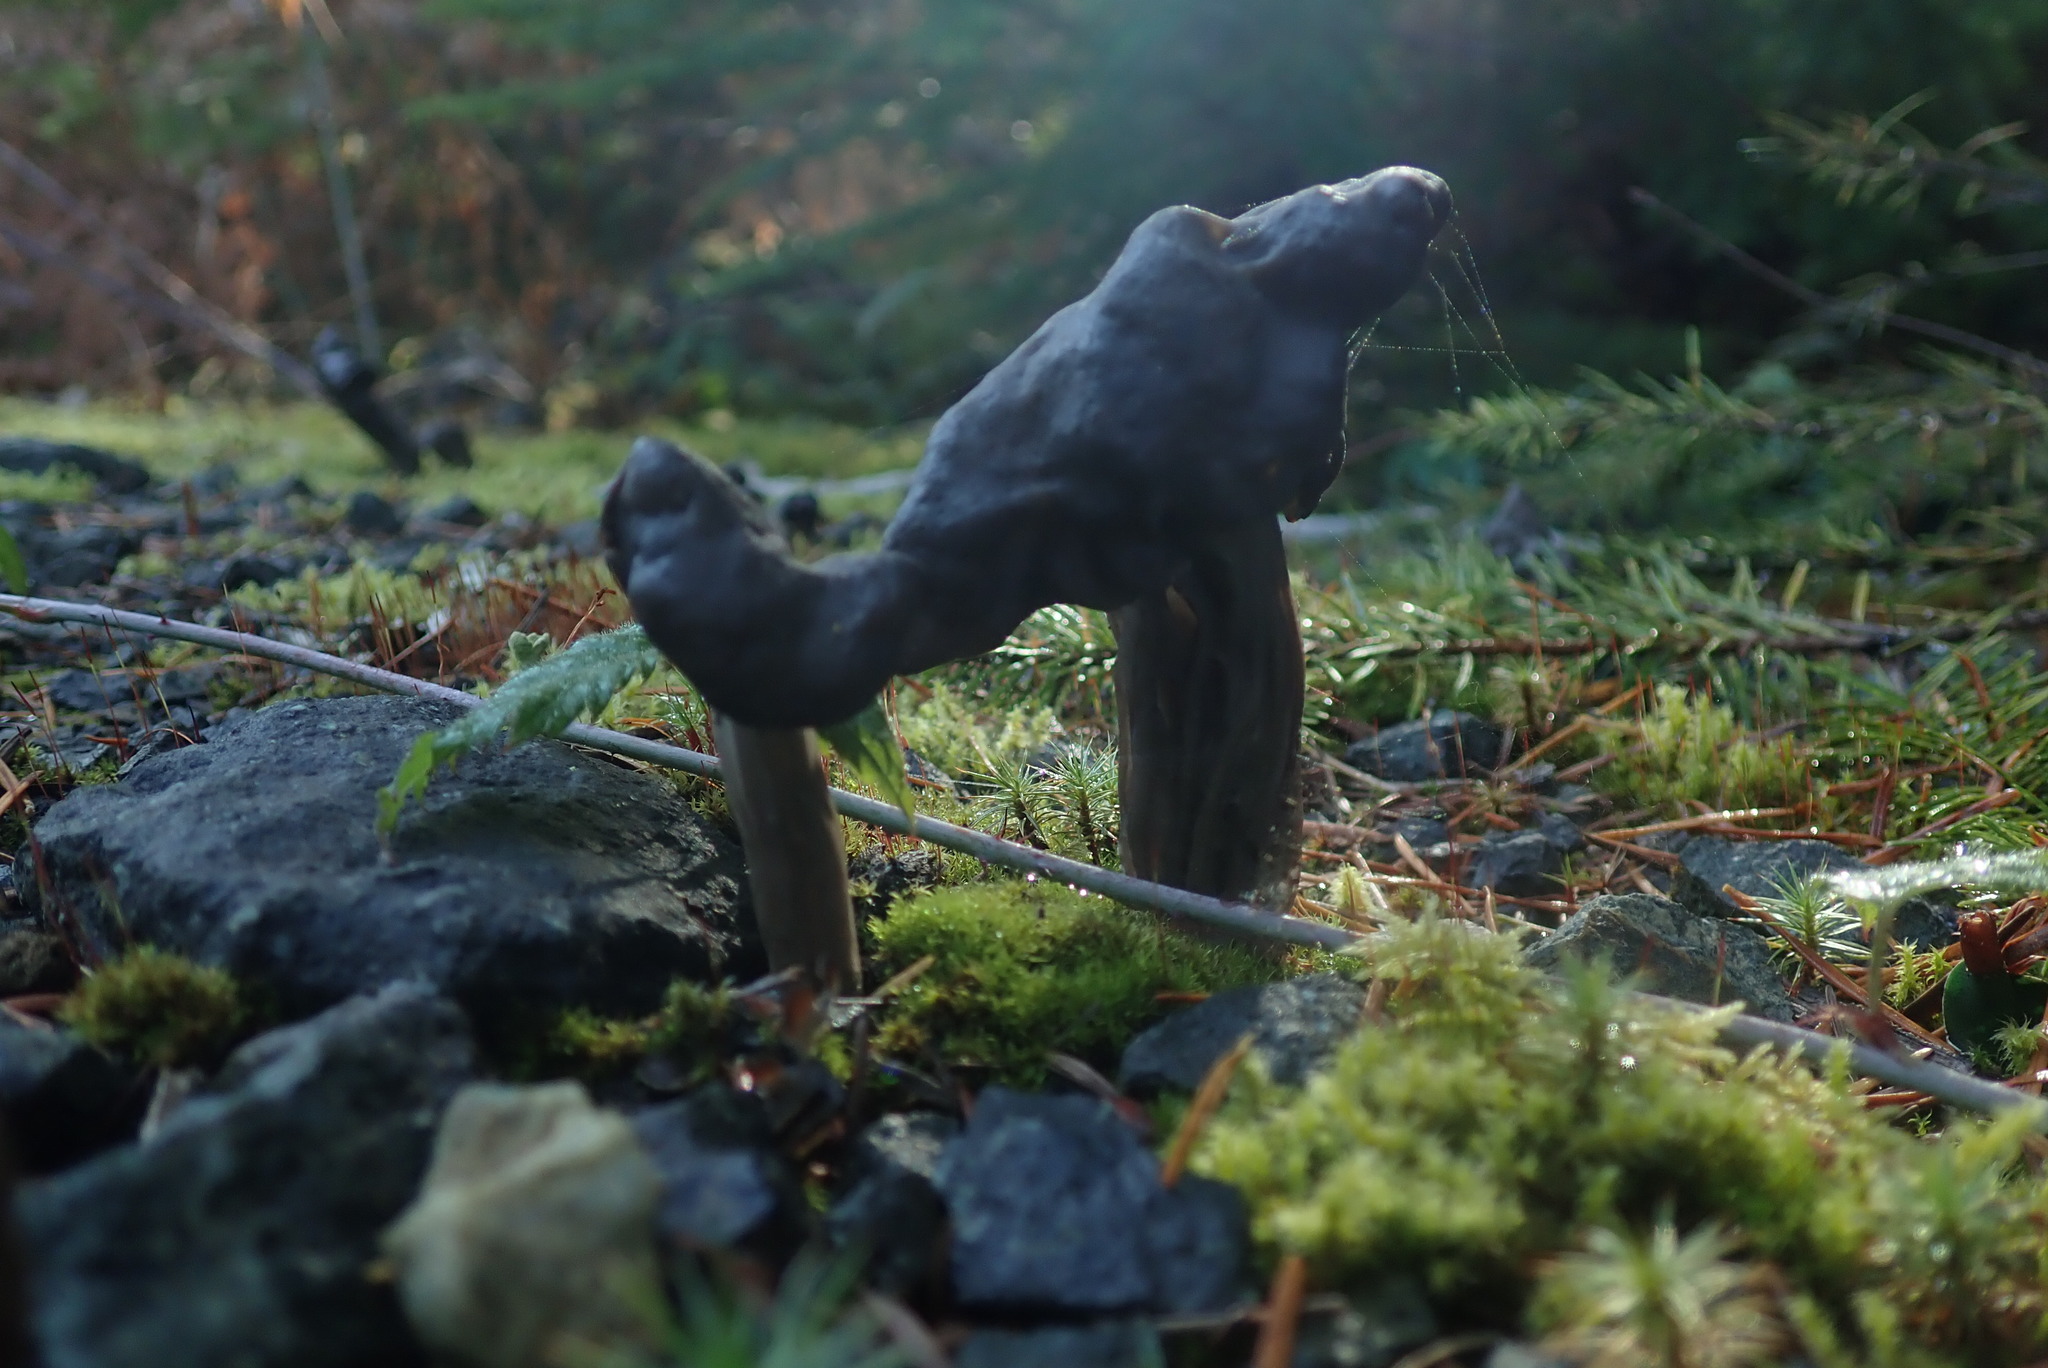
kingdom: Fungi
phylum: Ascomycota
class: Pezizomycetes
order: Pezizales
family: Helvellaceae
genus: Helvella
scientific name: Helvella vespertina
